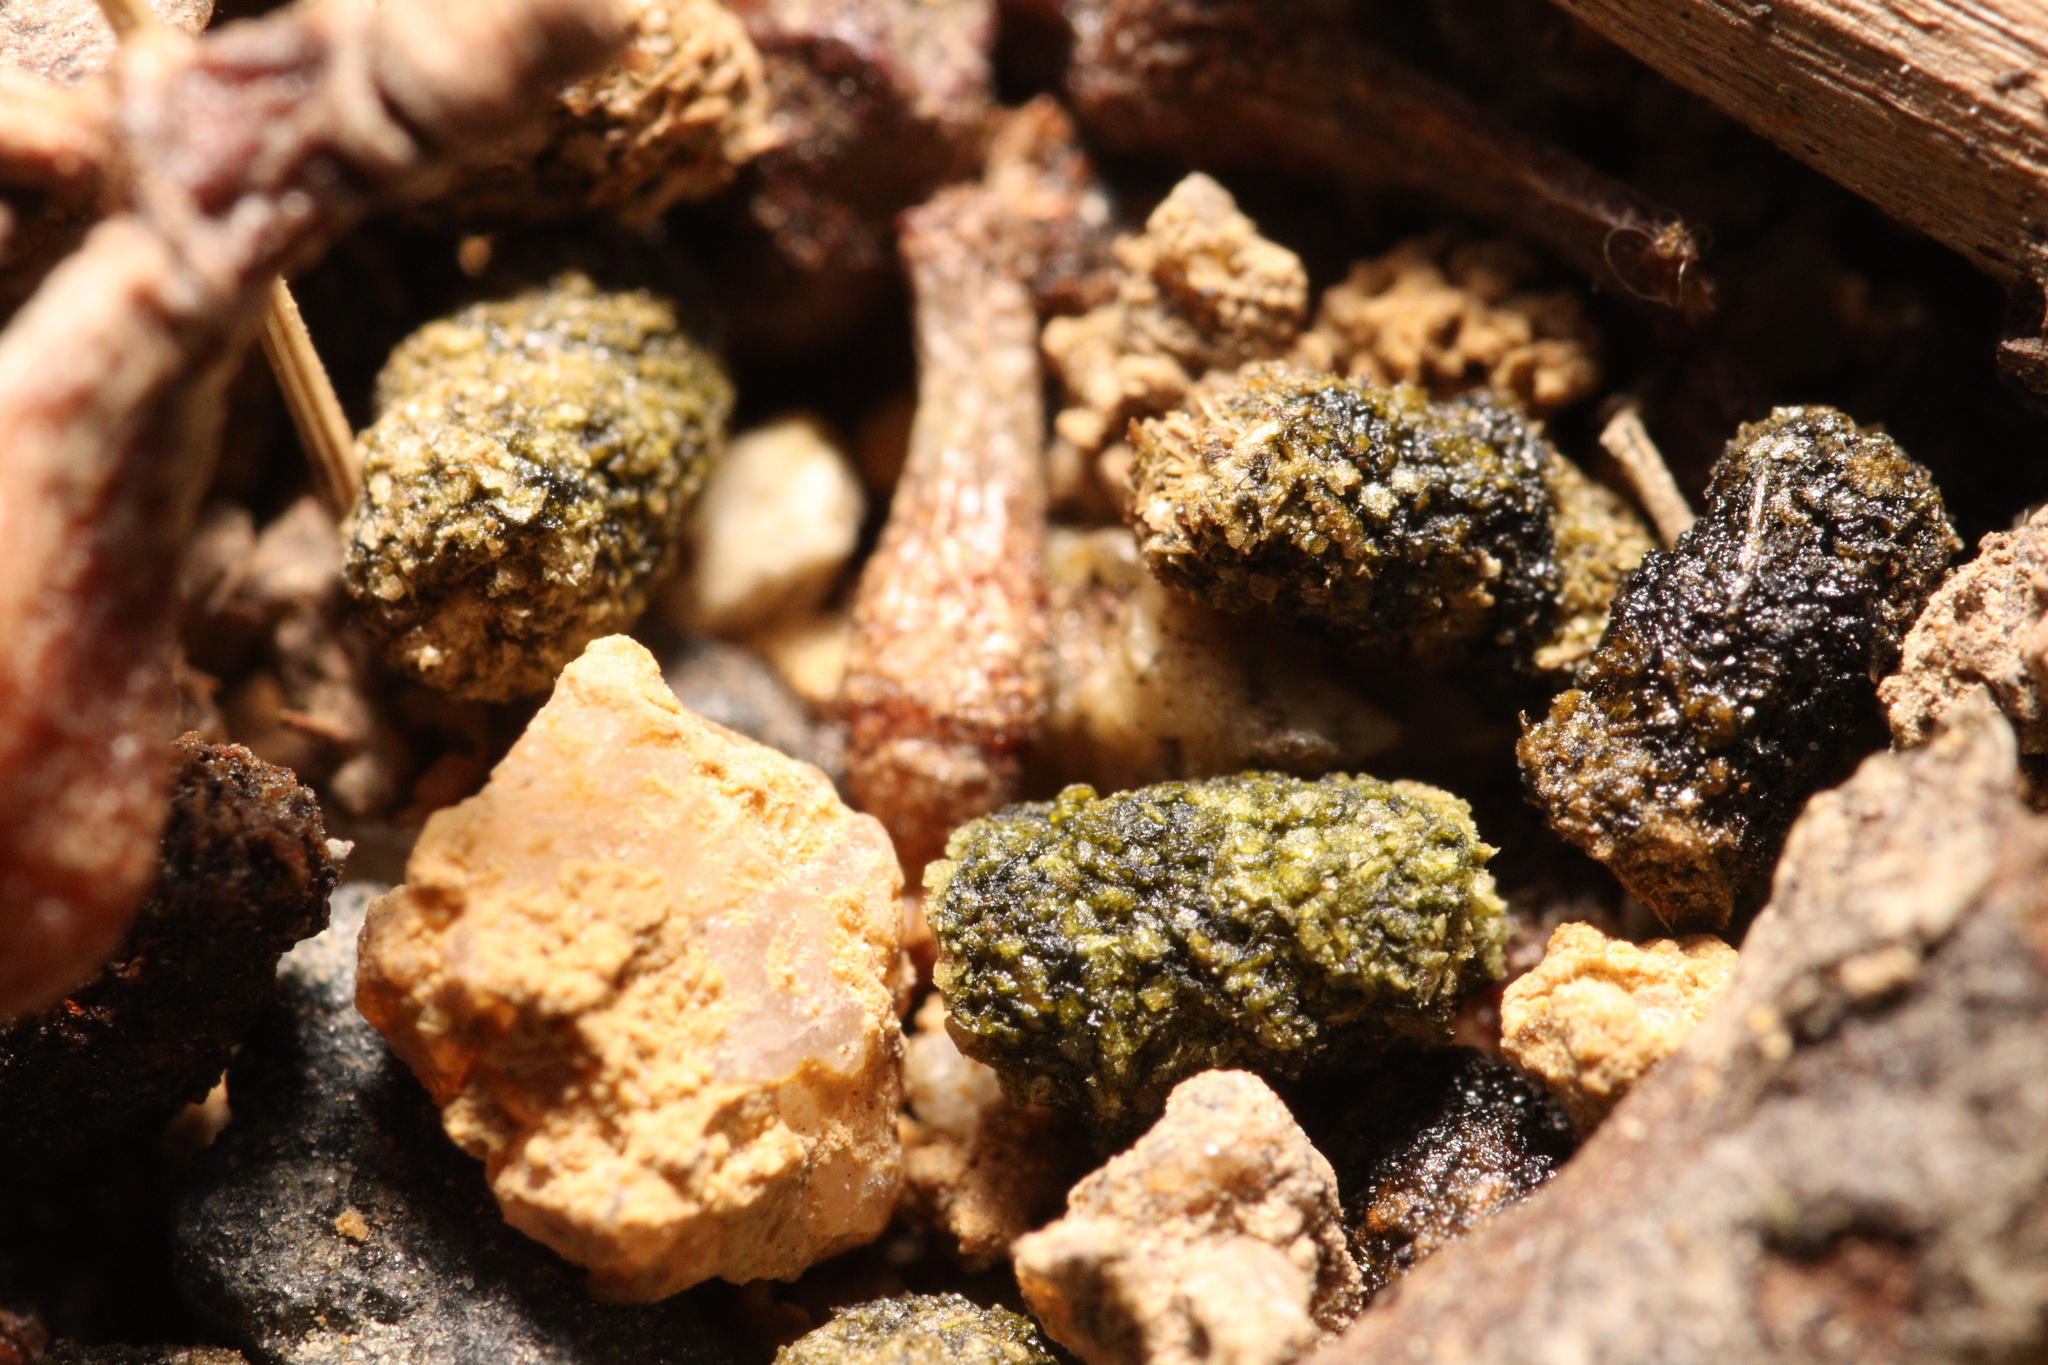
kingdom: Animalia
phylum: Arthropoda
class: Insecta
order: Hymenoptera
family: Formicidae
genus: Myrmecia
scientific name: Myrmecia pilosula
